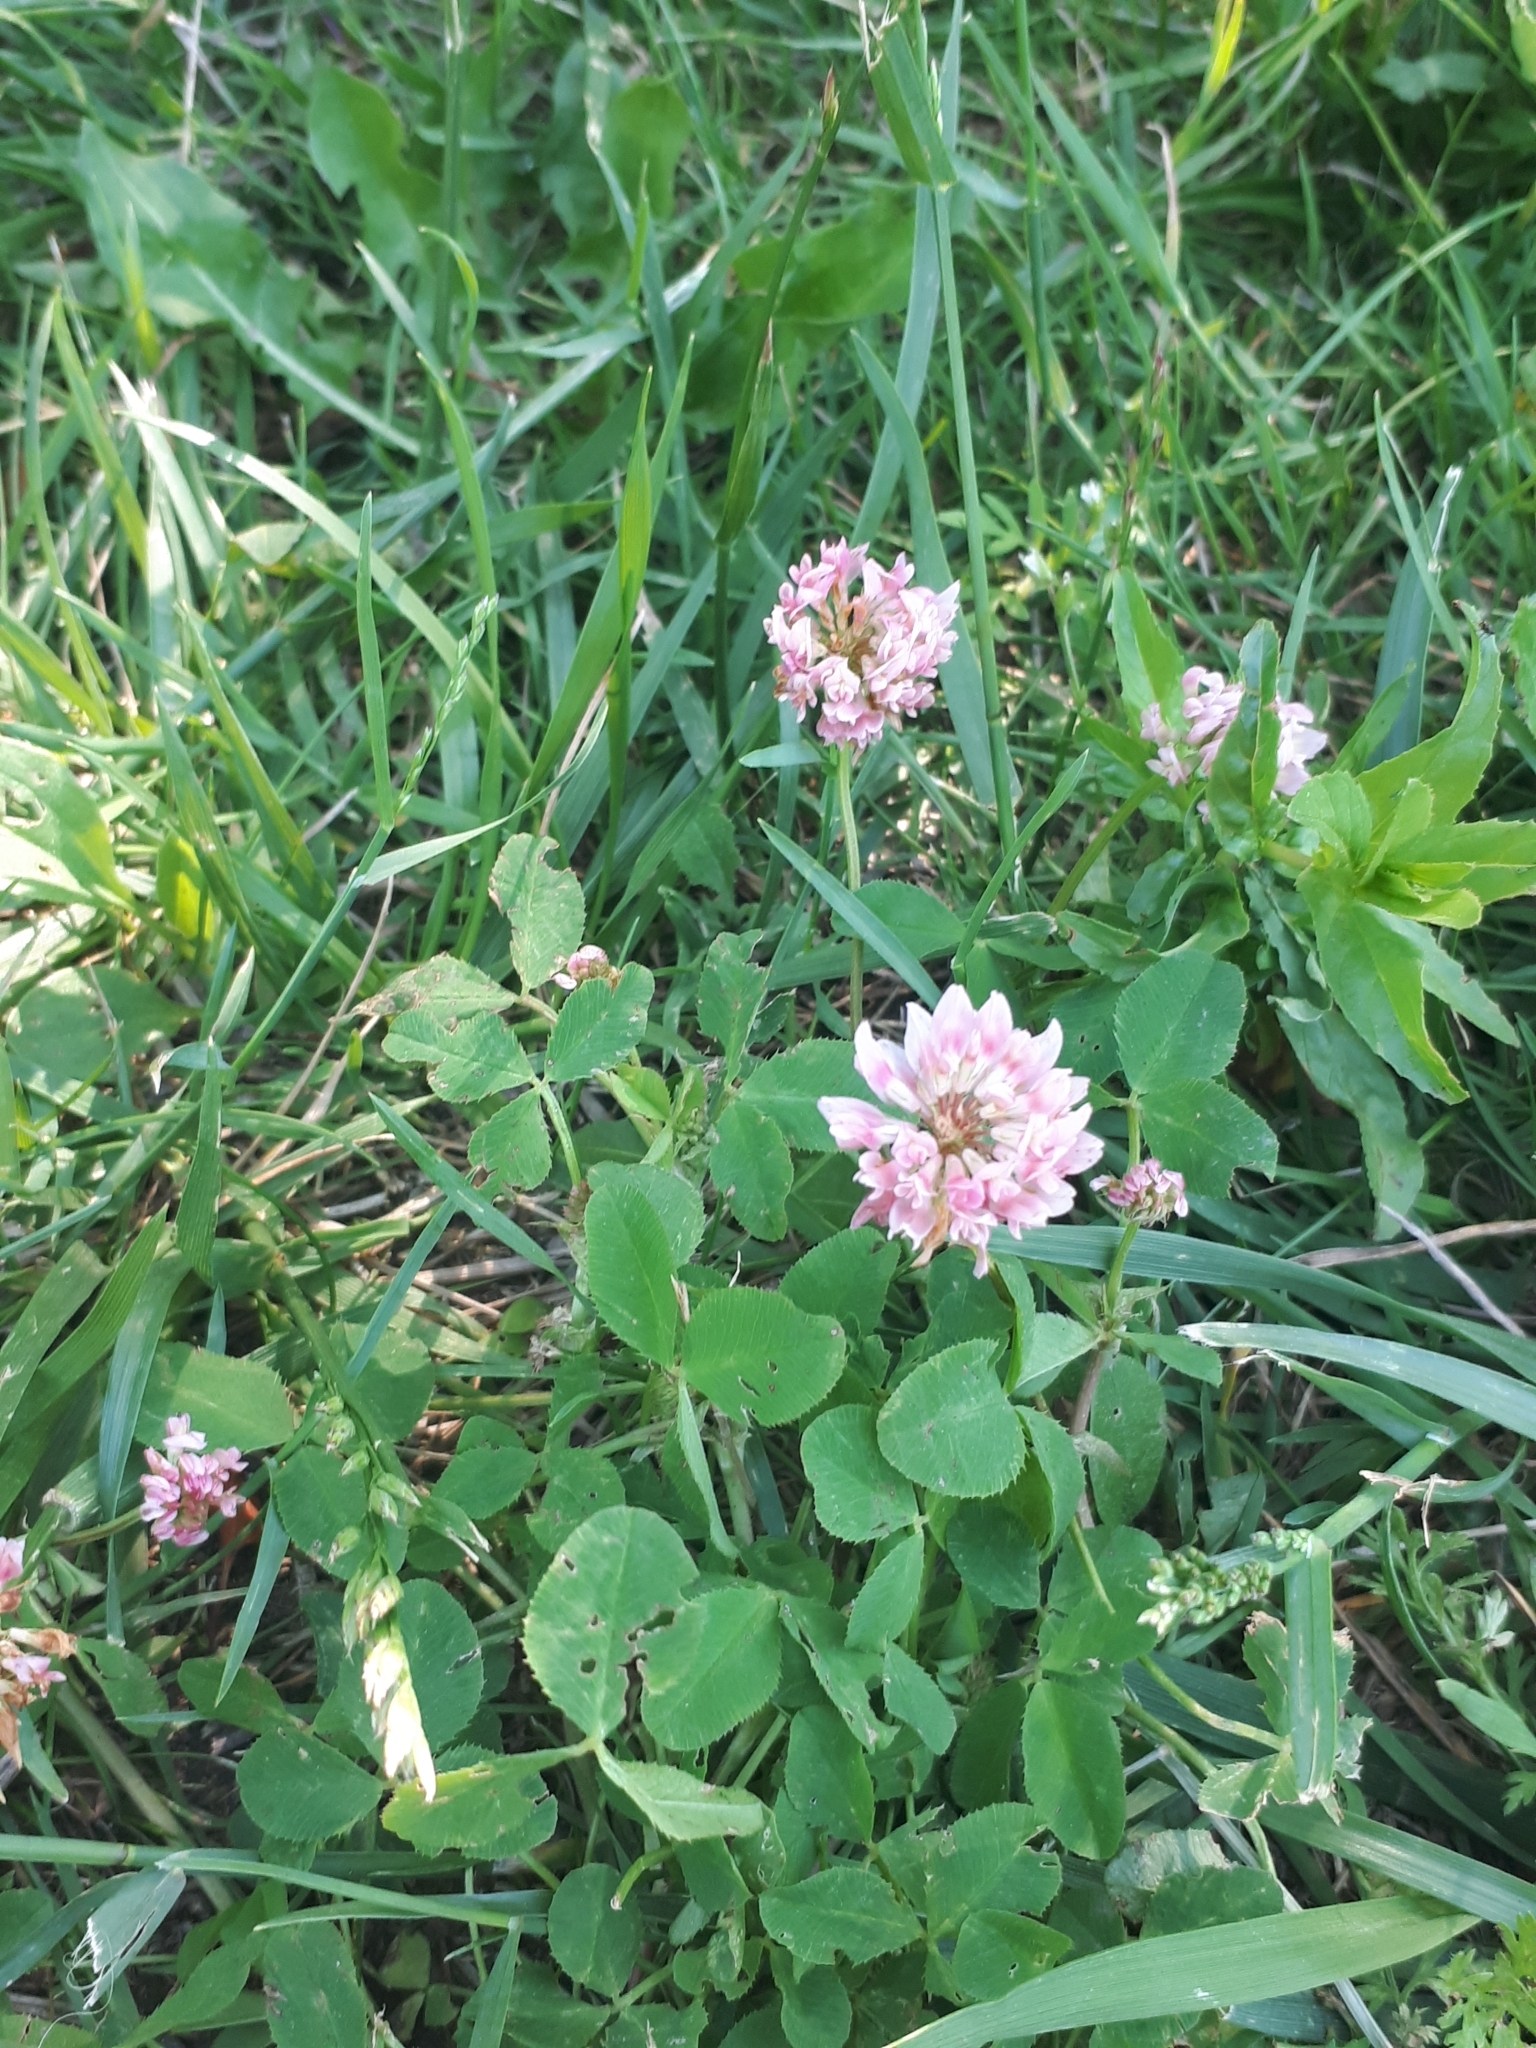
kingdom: Plantae
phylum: Tracheophyta
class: Magnoliopsida
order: Fabales
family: Fabaceae
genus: Trifolium
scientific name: Trifolium pratense
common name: Red clover
